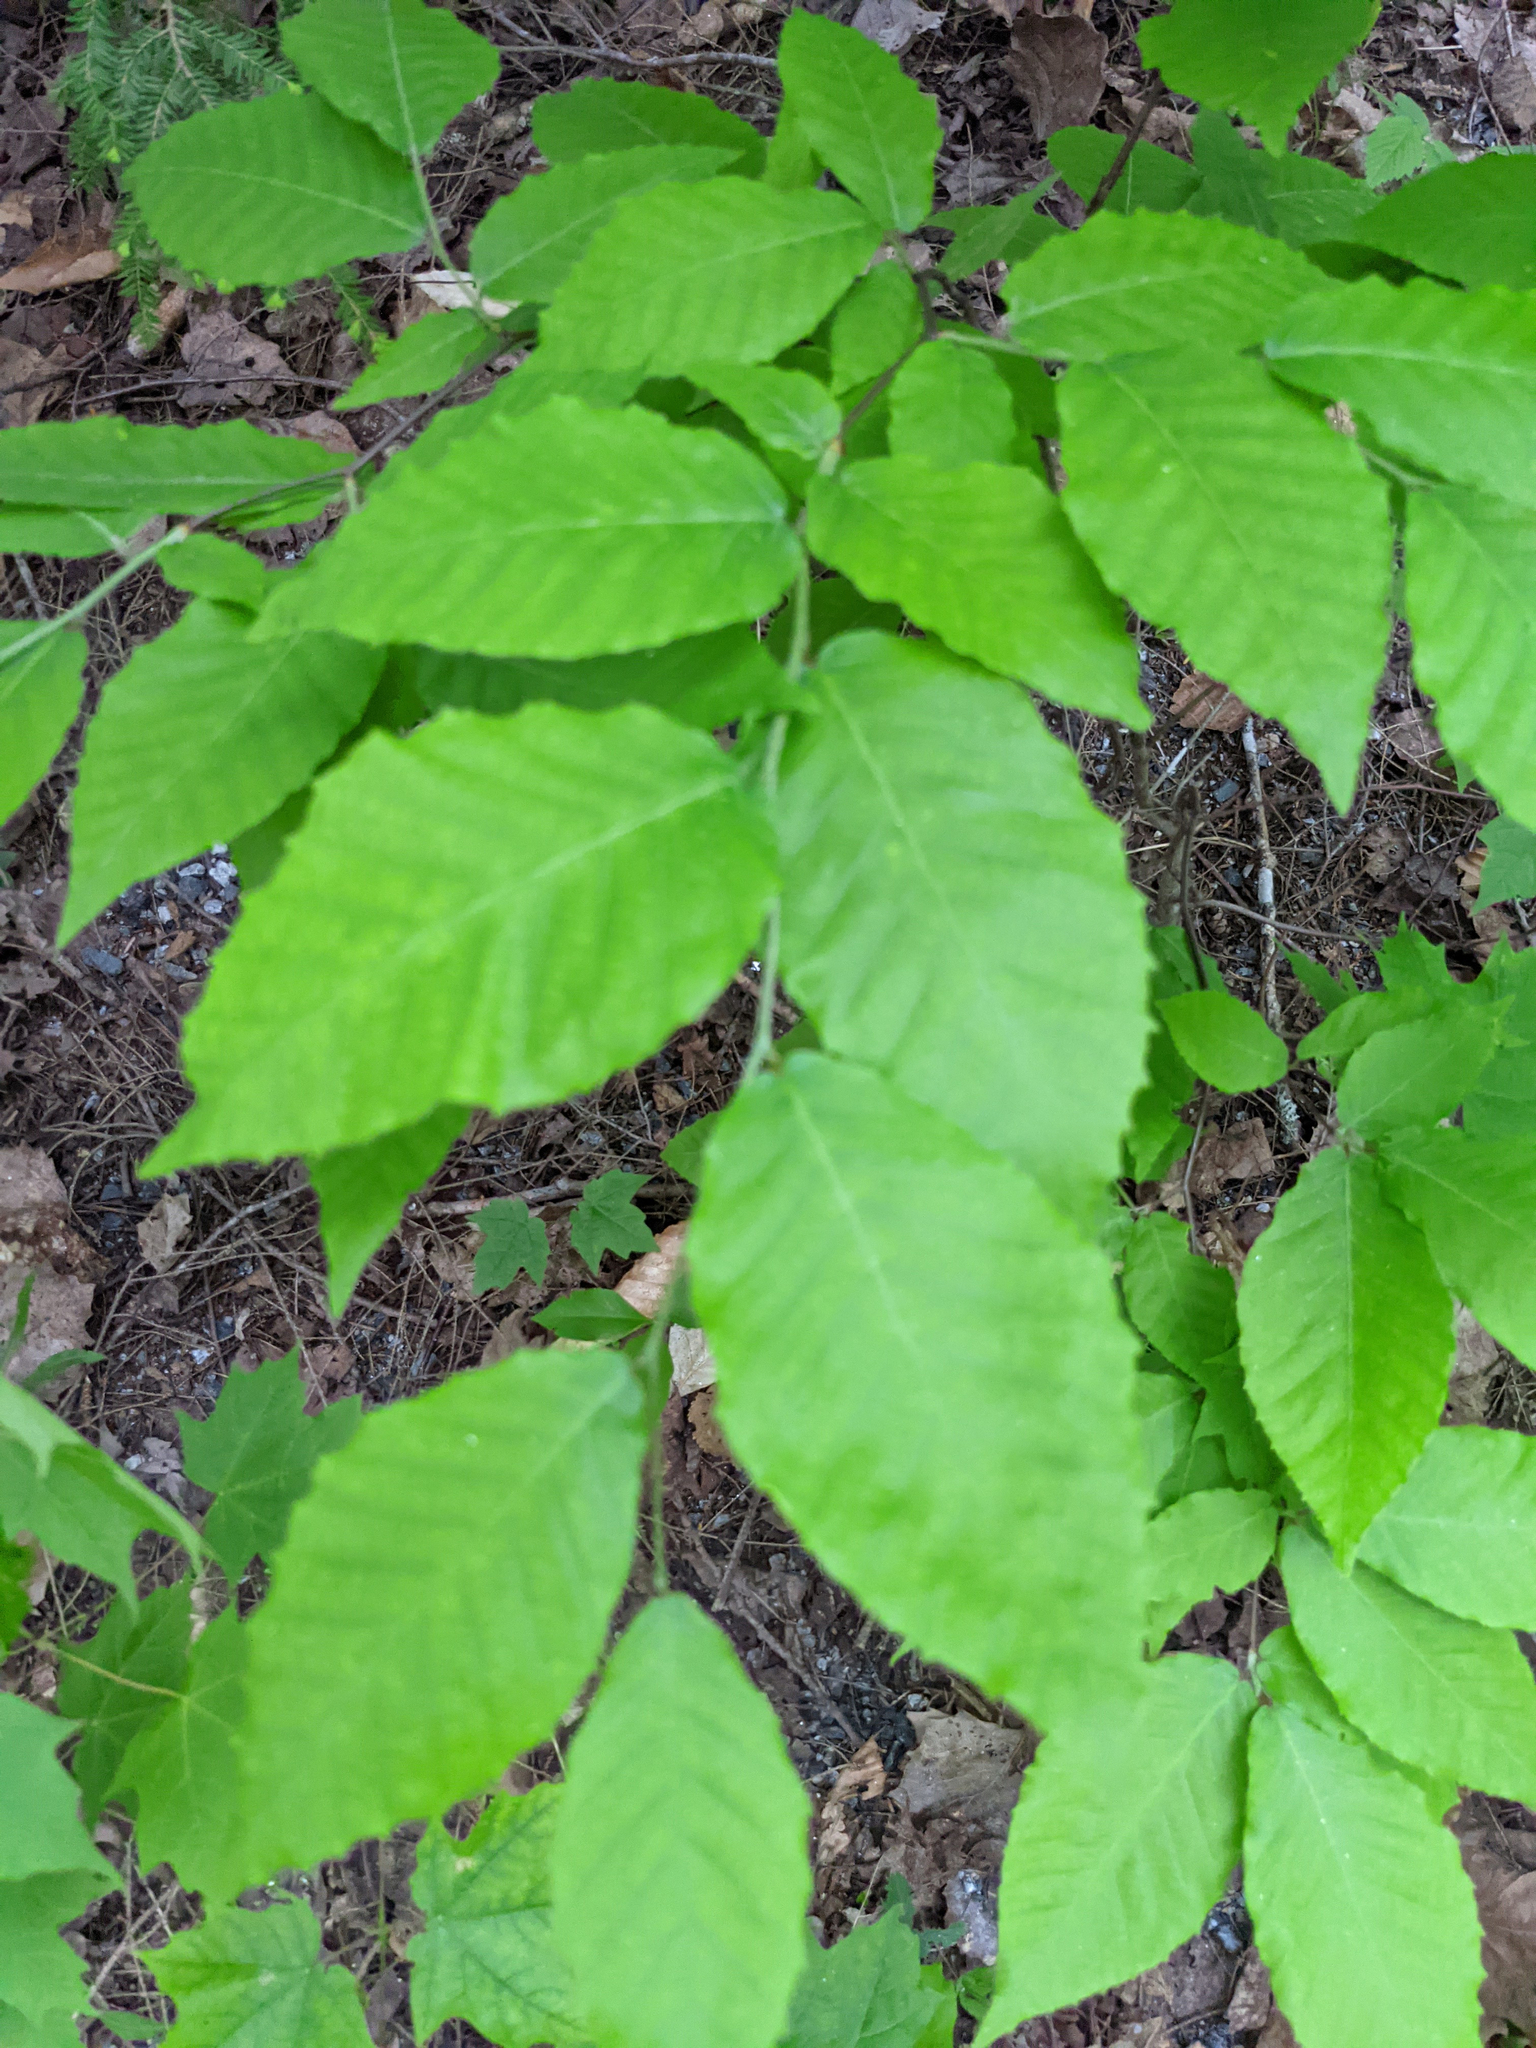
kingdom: Plantae
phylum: Tracheophyta
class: Magnoliopsida
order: Fagales
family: Fagaceae
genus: Fagus
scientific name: Fagus grandifolia
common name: American beech
